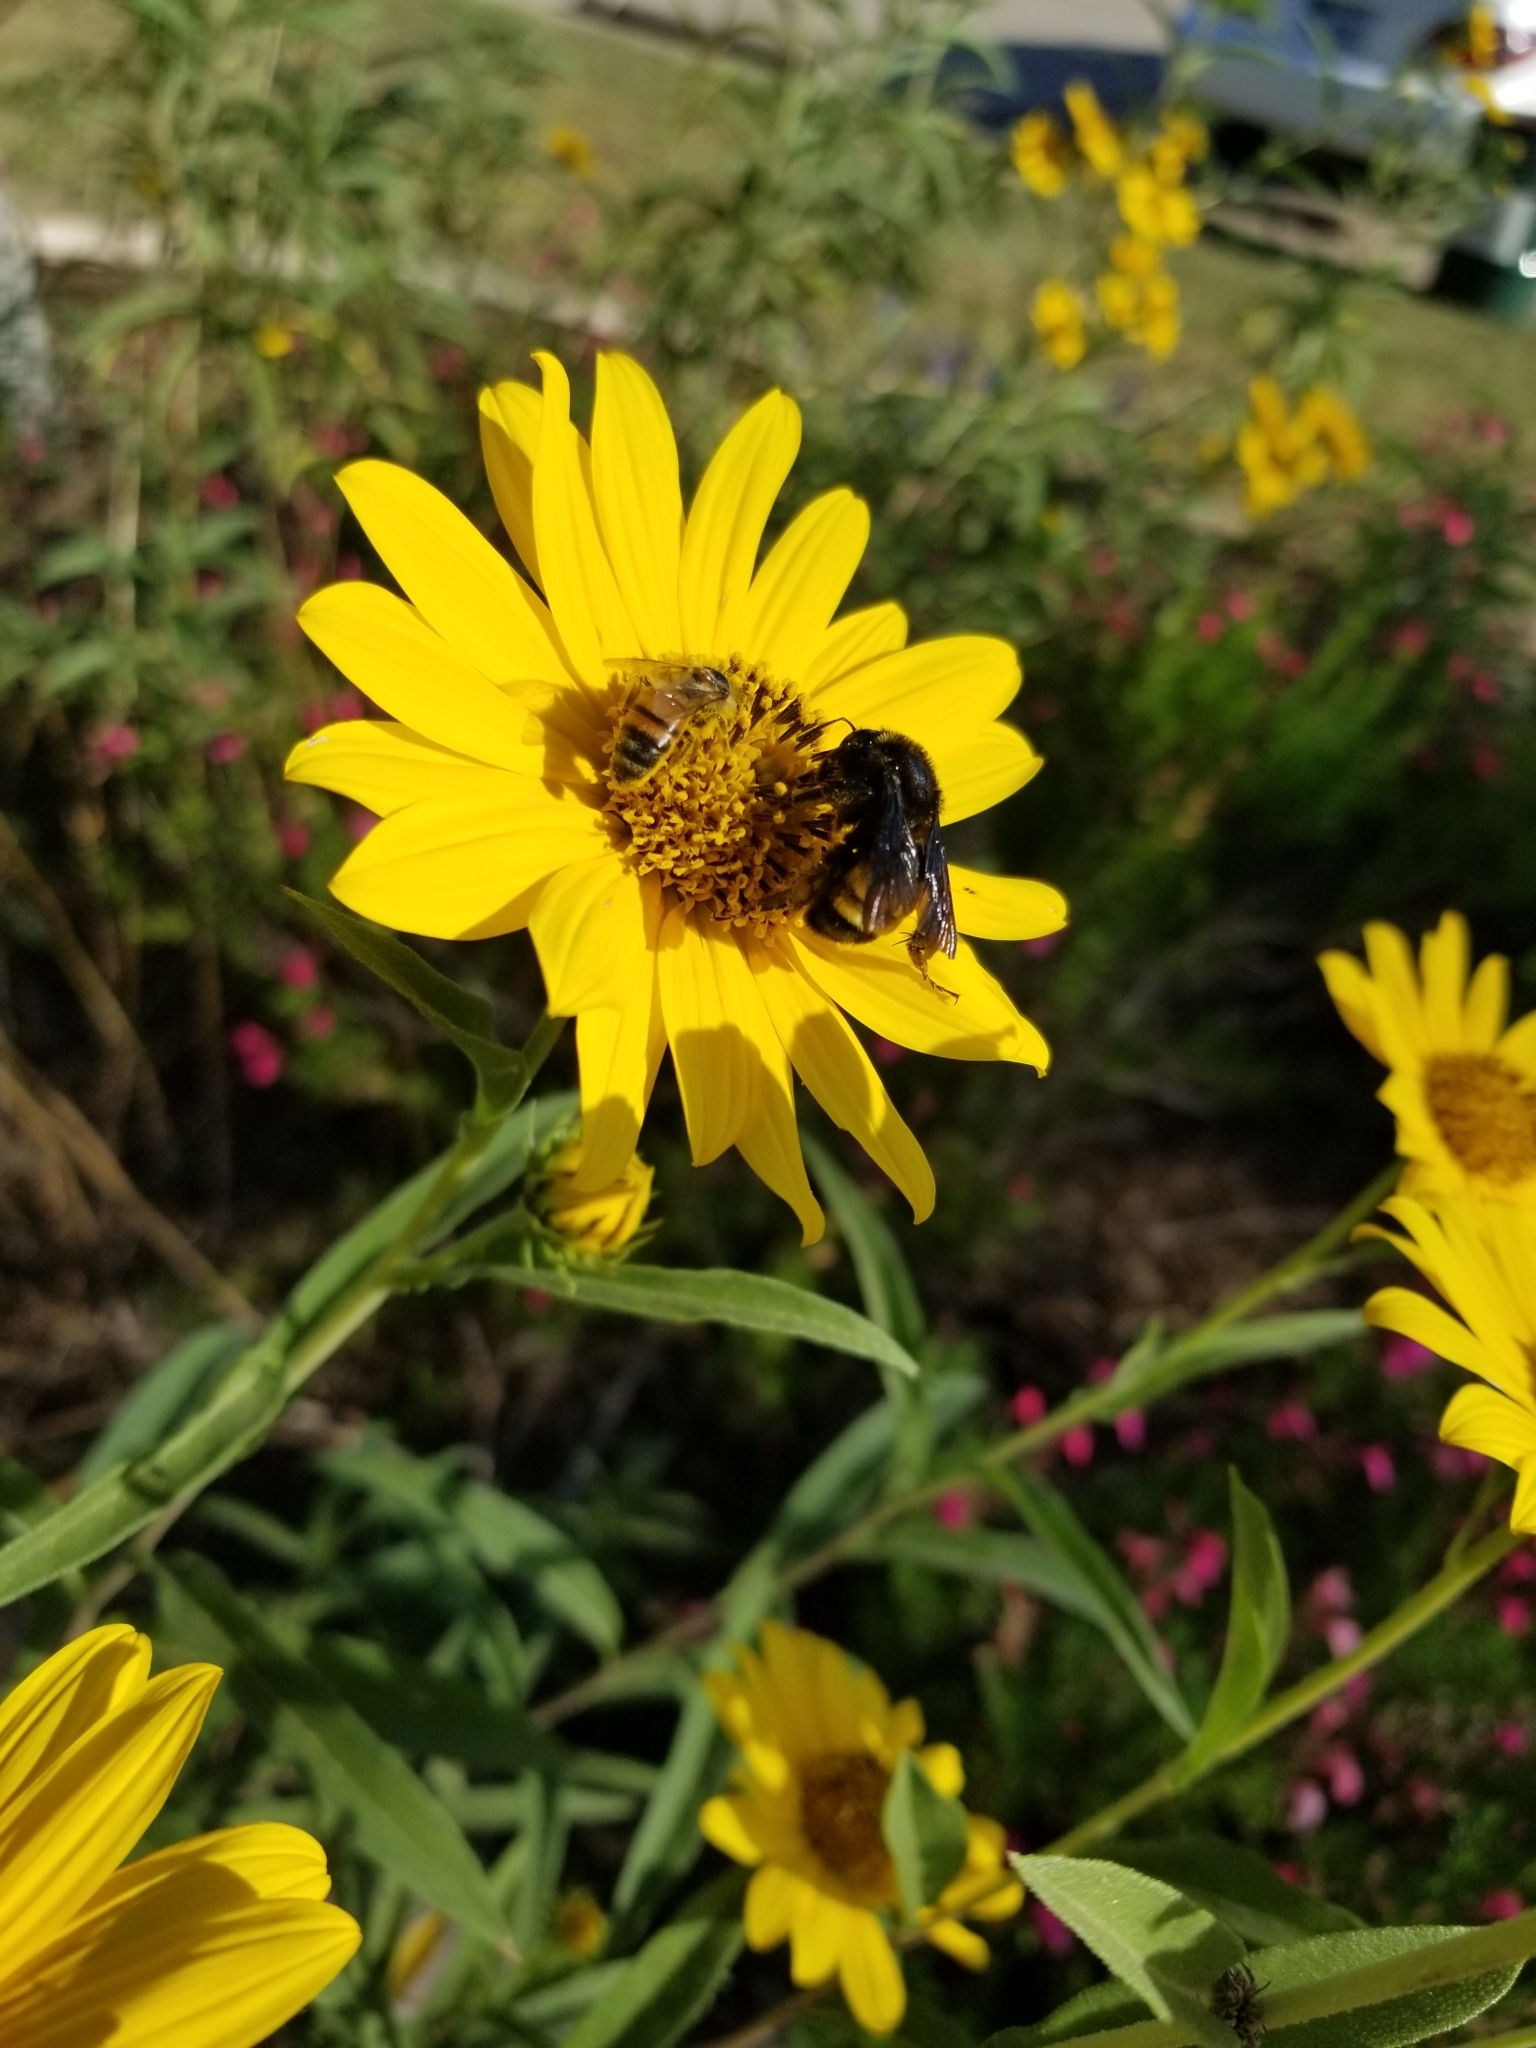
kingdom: Animalia
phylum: Arthropoda
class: Insecta
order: Hymenoptera
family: Apidae
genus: Bombus
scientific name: Bombus pensylvanicus
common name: Bumble bee
